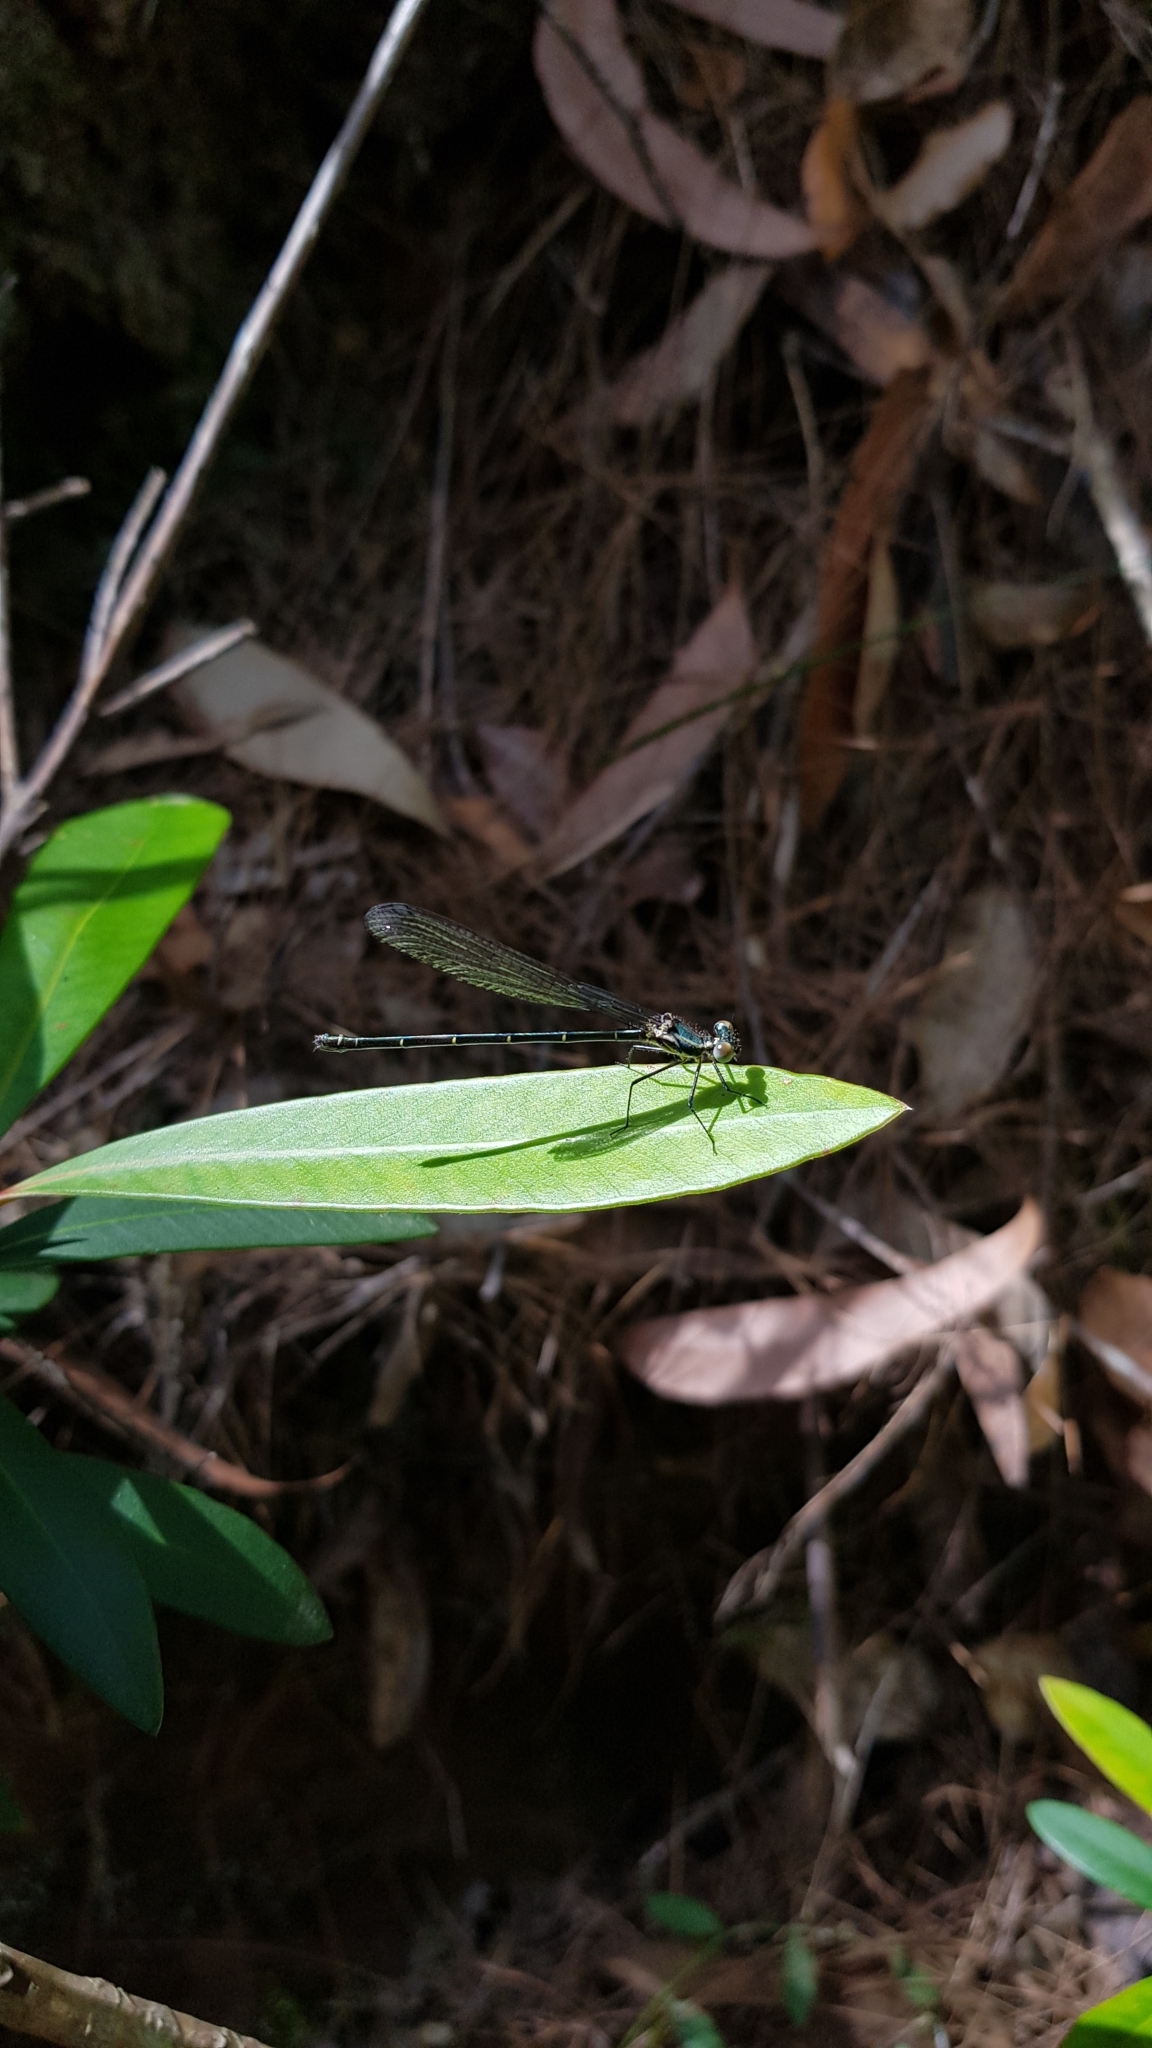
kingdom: Animalia
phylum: Arthropoda
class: Insecta
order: Odonata
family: Argiolestidae
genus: Austroargiolestes
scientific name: Austroargiolestes icteromelas
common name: Common flatwing
